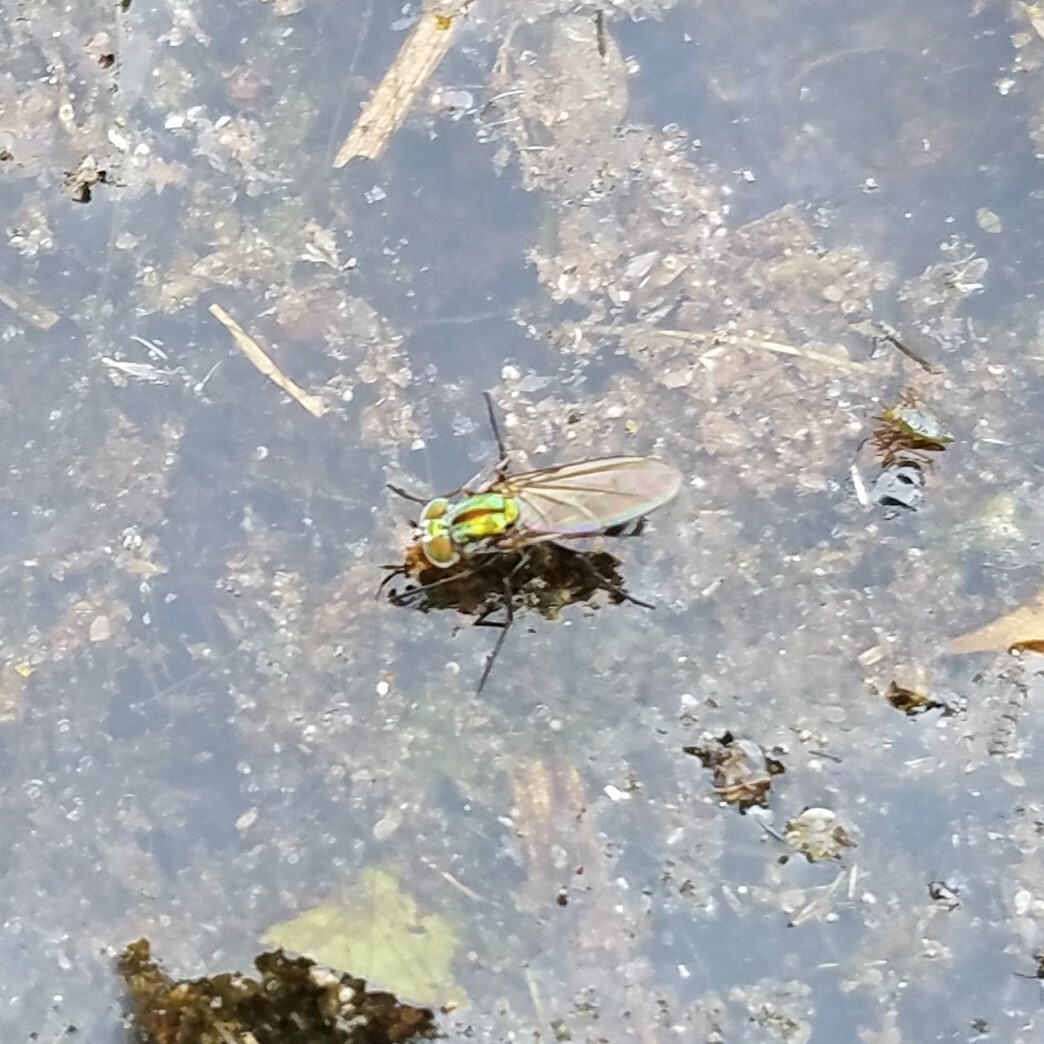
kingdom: Animalia
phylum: Arthropoda
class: Insecta
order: Diptera
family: Dolichopodidae
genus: Plagioneurus
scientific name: Plagioneurus univittatus
